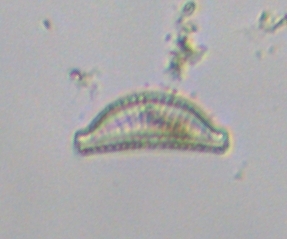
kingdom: Chromista
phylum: Ochrophyta
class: Bacillariophyceae
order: Rhopalodiales
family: Rhopalodiaceae
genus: Epithemia
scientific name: Epithemia sorex
